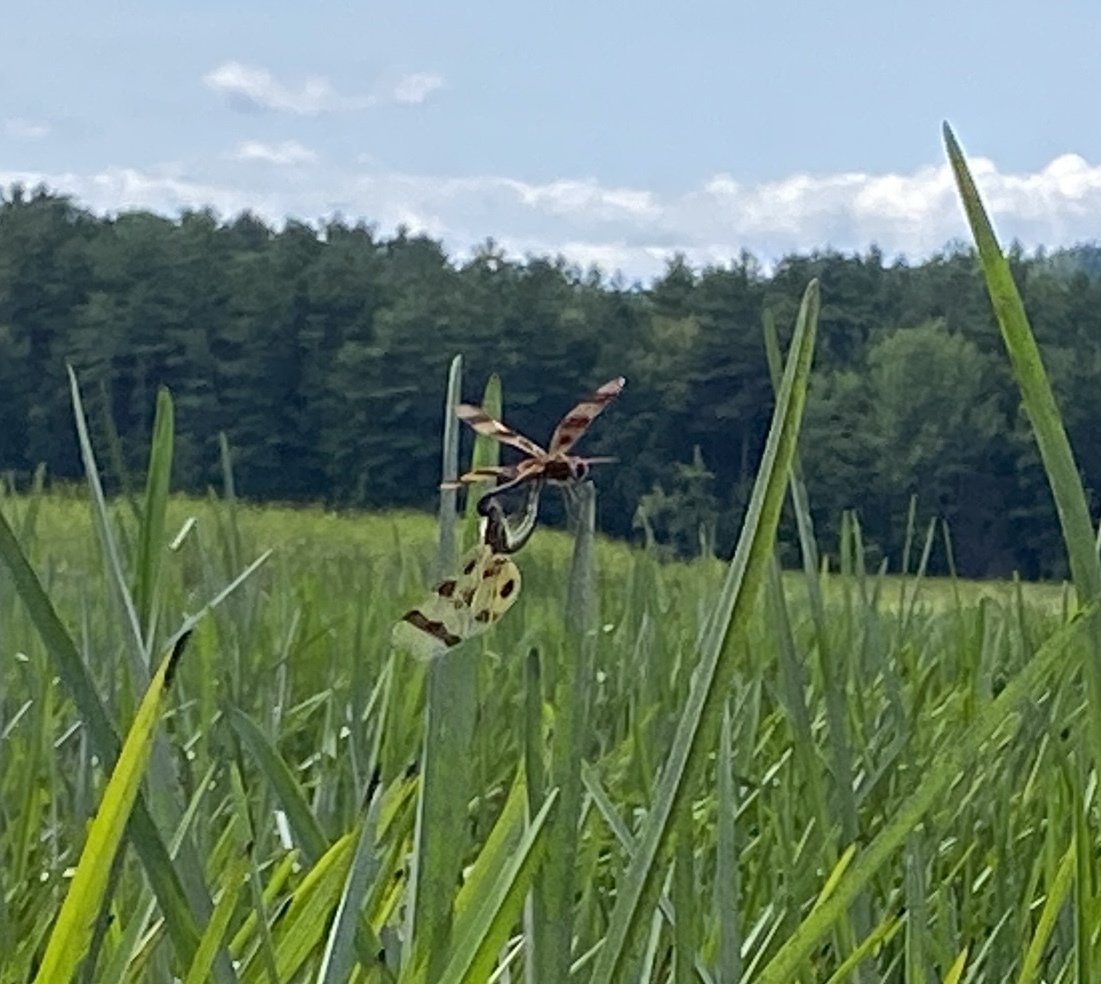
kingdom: Animalia
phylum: Arthropoda
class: Insecta
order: Odonata
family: Libellulidae
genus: Celithemis
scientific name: Celithemis eponina
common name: Halloween pennant
